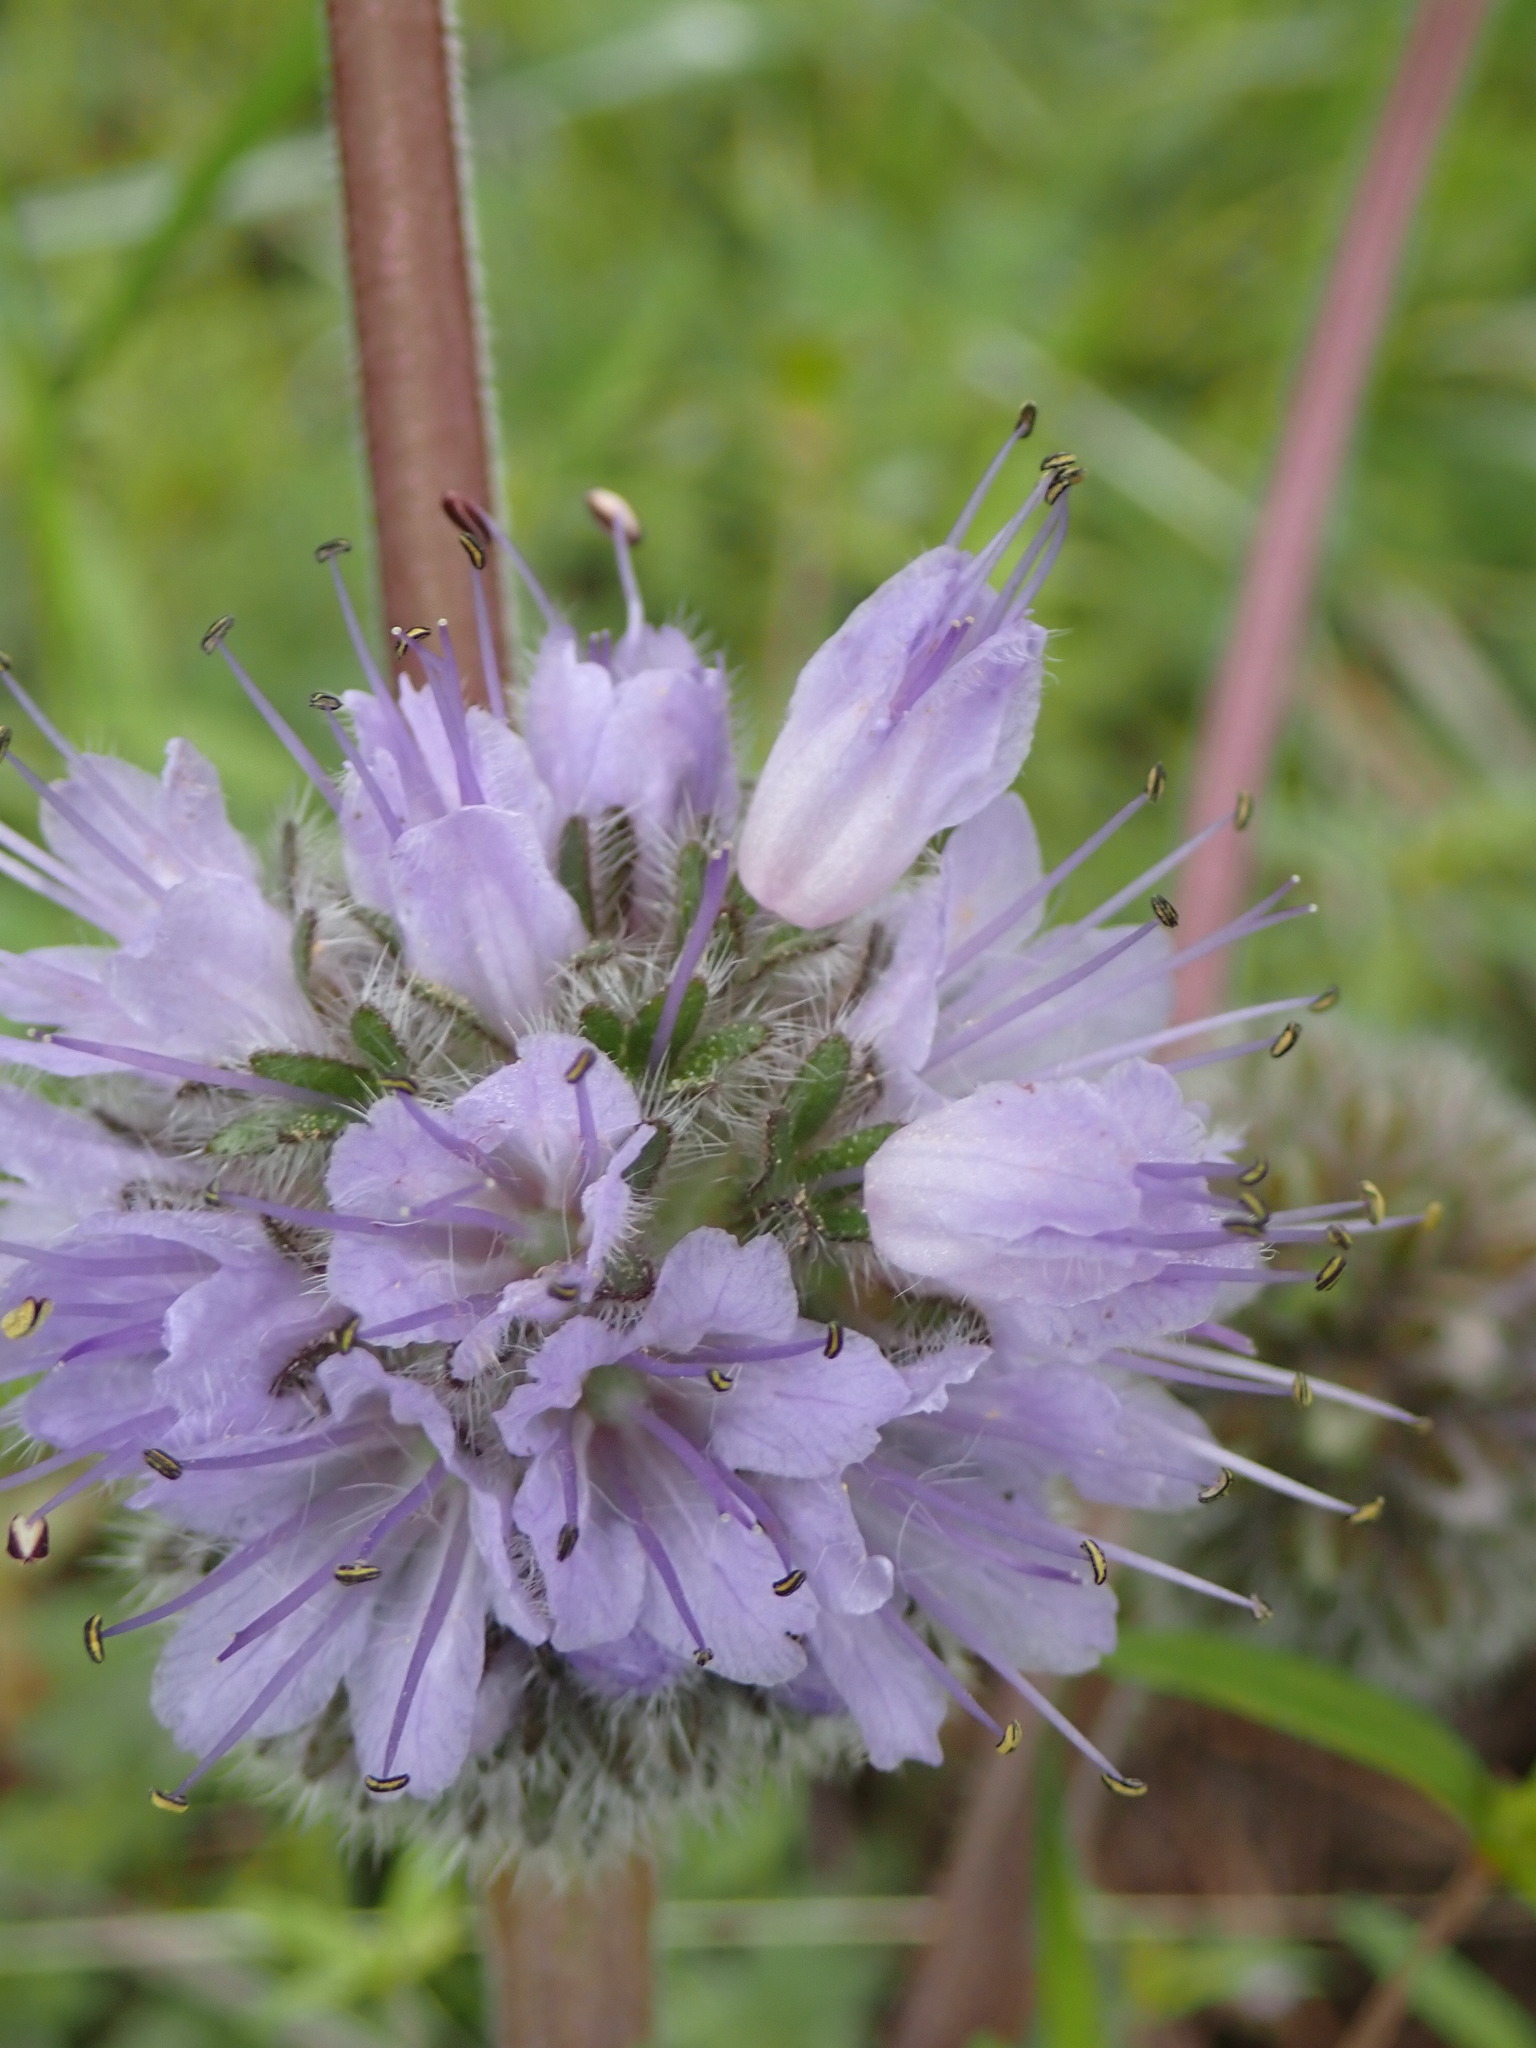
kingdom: Plantae
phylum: Tracheophyta
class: Magnoliopsida
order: Boraginales
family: Hydrophyllaceae
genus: Hydrophyllum
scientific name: Hydrophyllum capitatum
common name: Woollen-breeches
